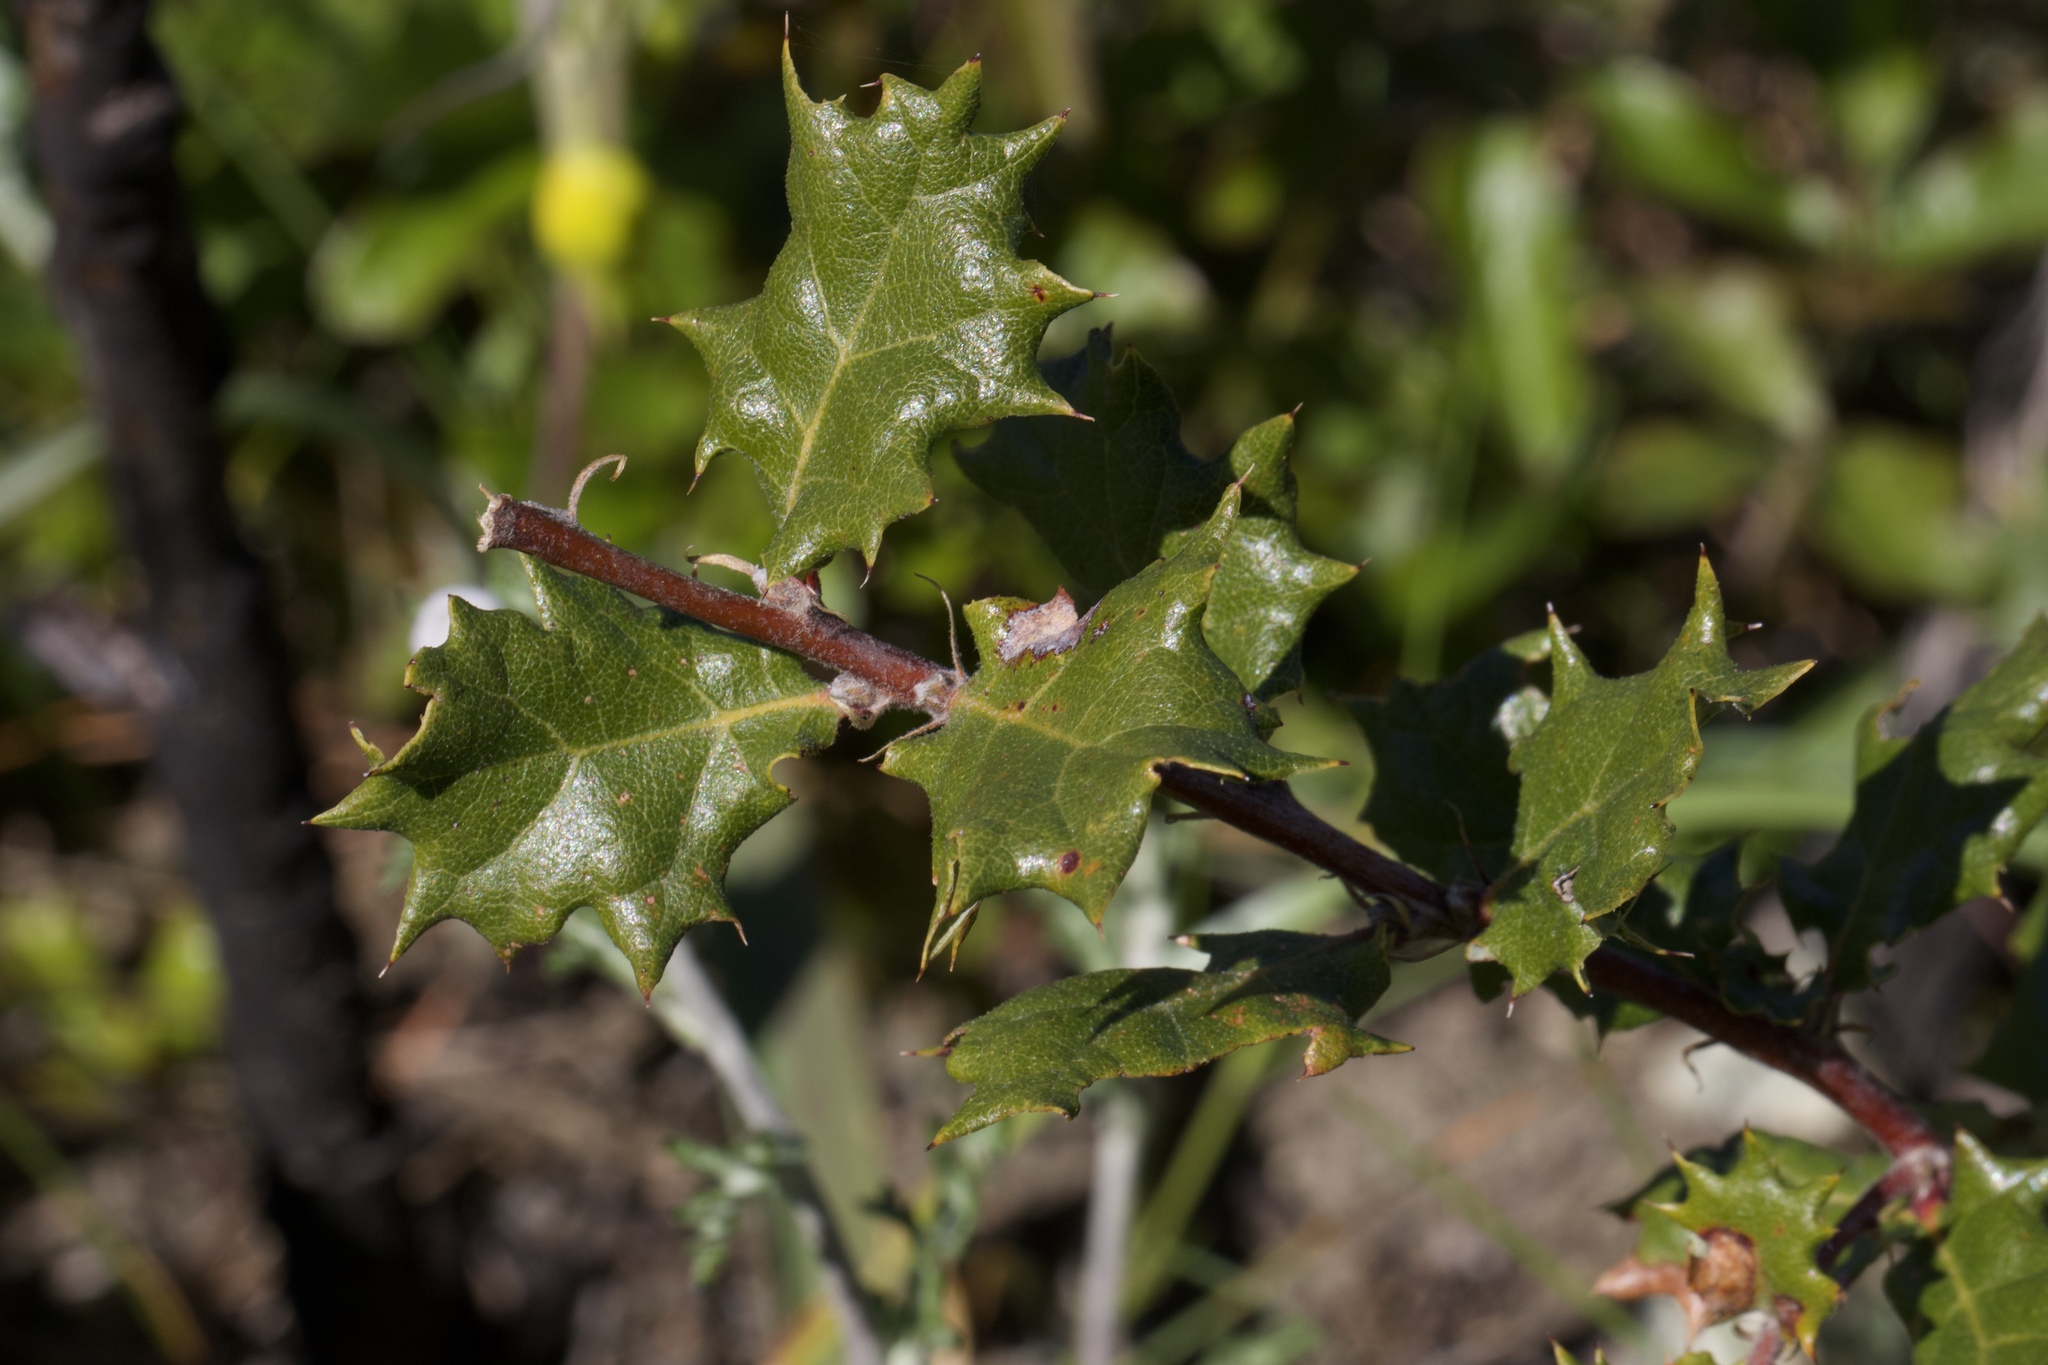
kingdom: Plantae
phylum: Tracheophyta
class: Magnoliopsida
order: Fagales
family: Fagaceae
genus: Quercus
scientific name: Quercus durata
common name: Leather oak
